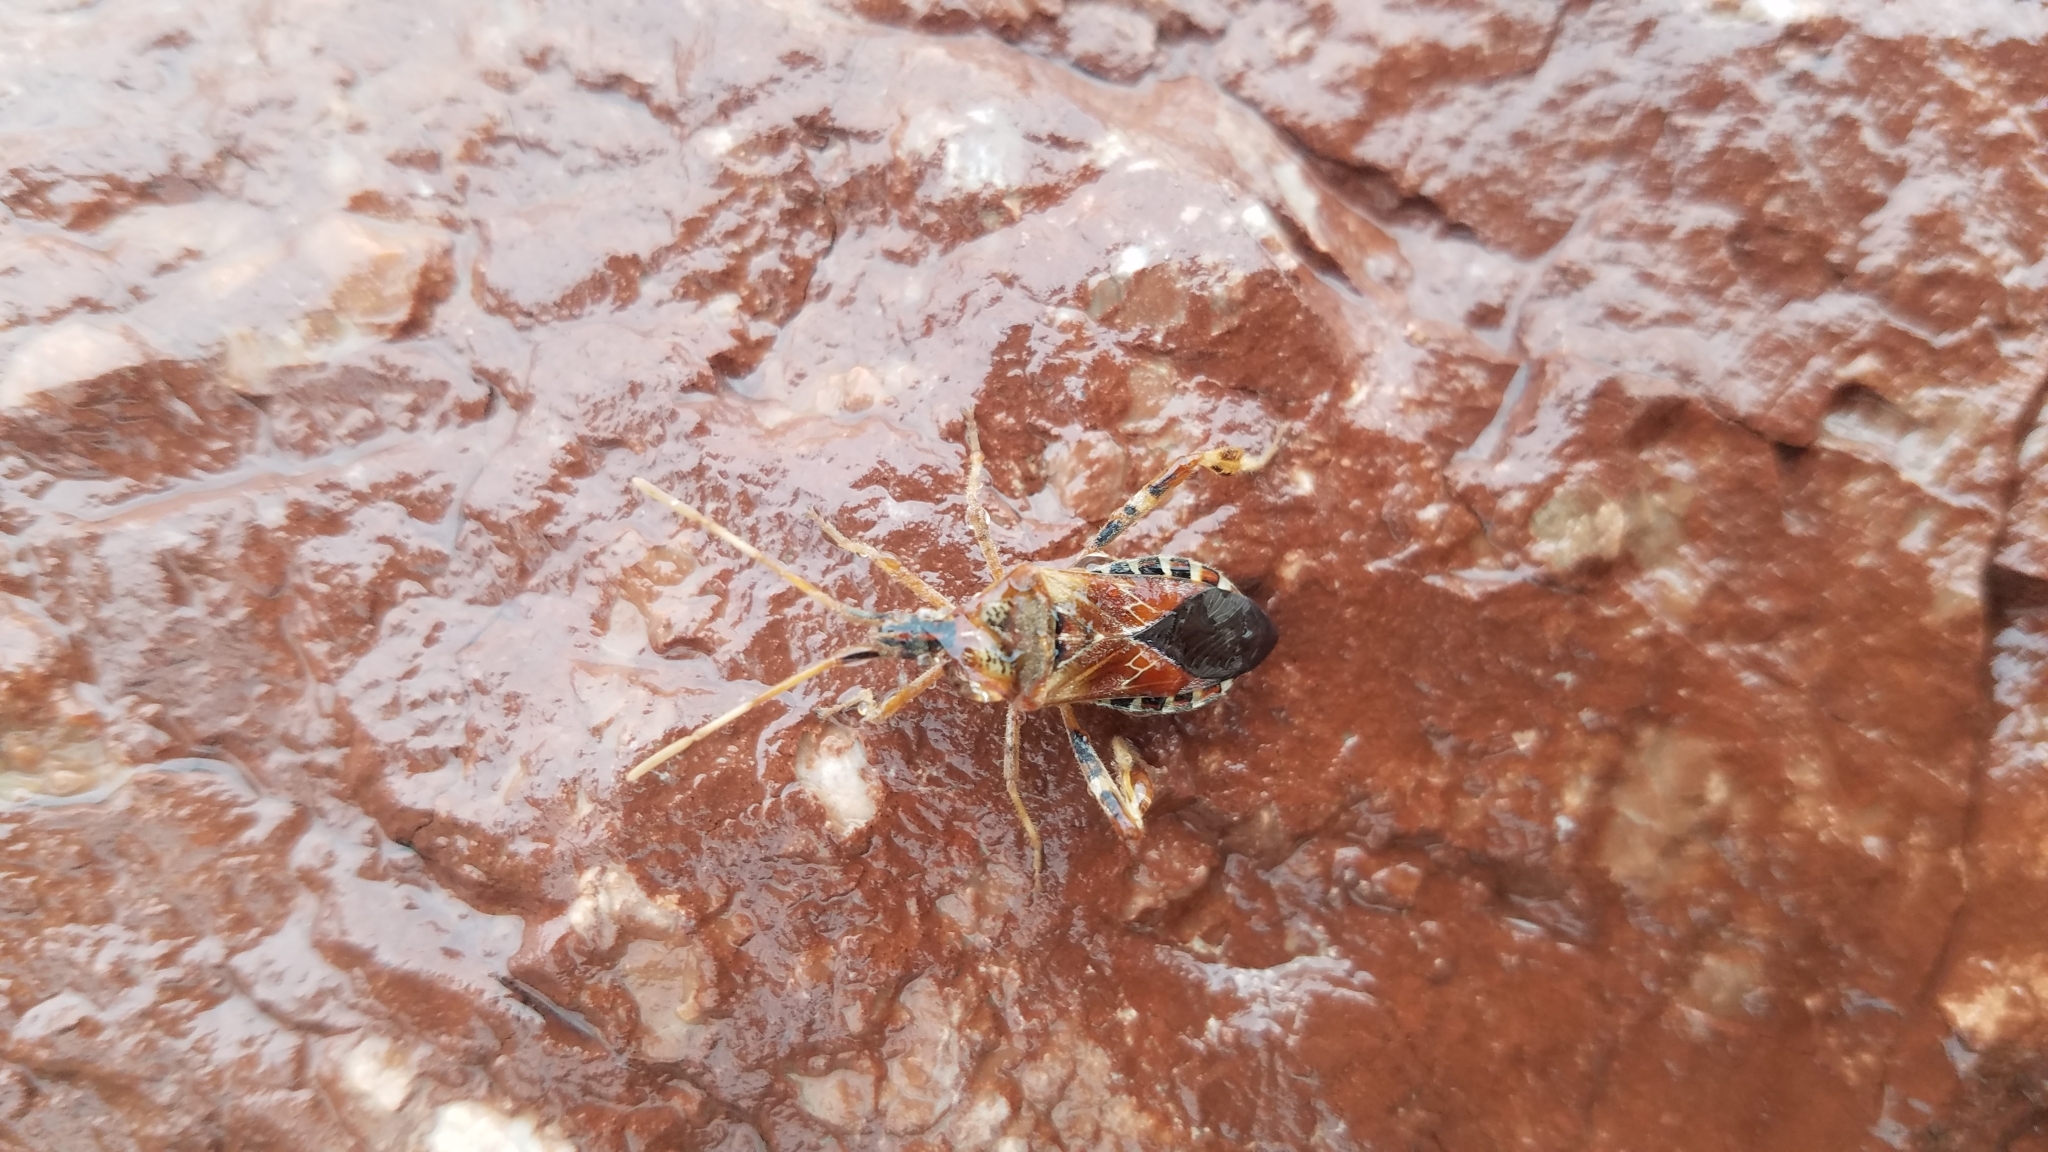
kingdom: Animalia
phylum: Arthropoda
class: Insecta
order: Hemiptera
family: Coreidae
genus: Leptoglossus
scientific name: Leptoglossus occidentalis
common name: Western conifer-seed bug
